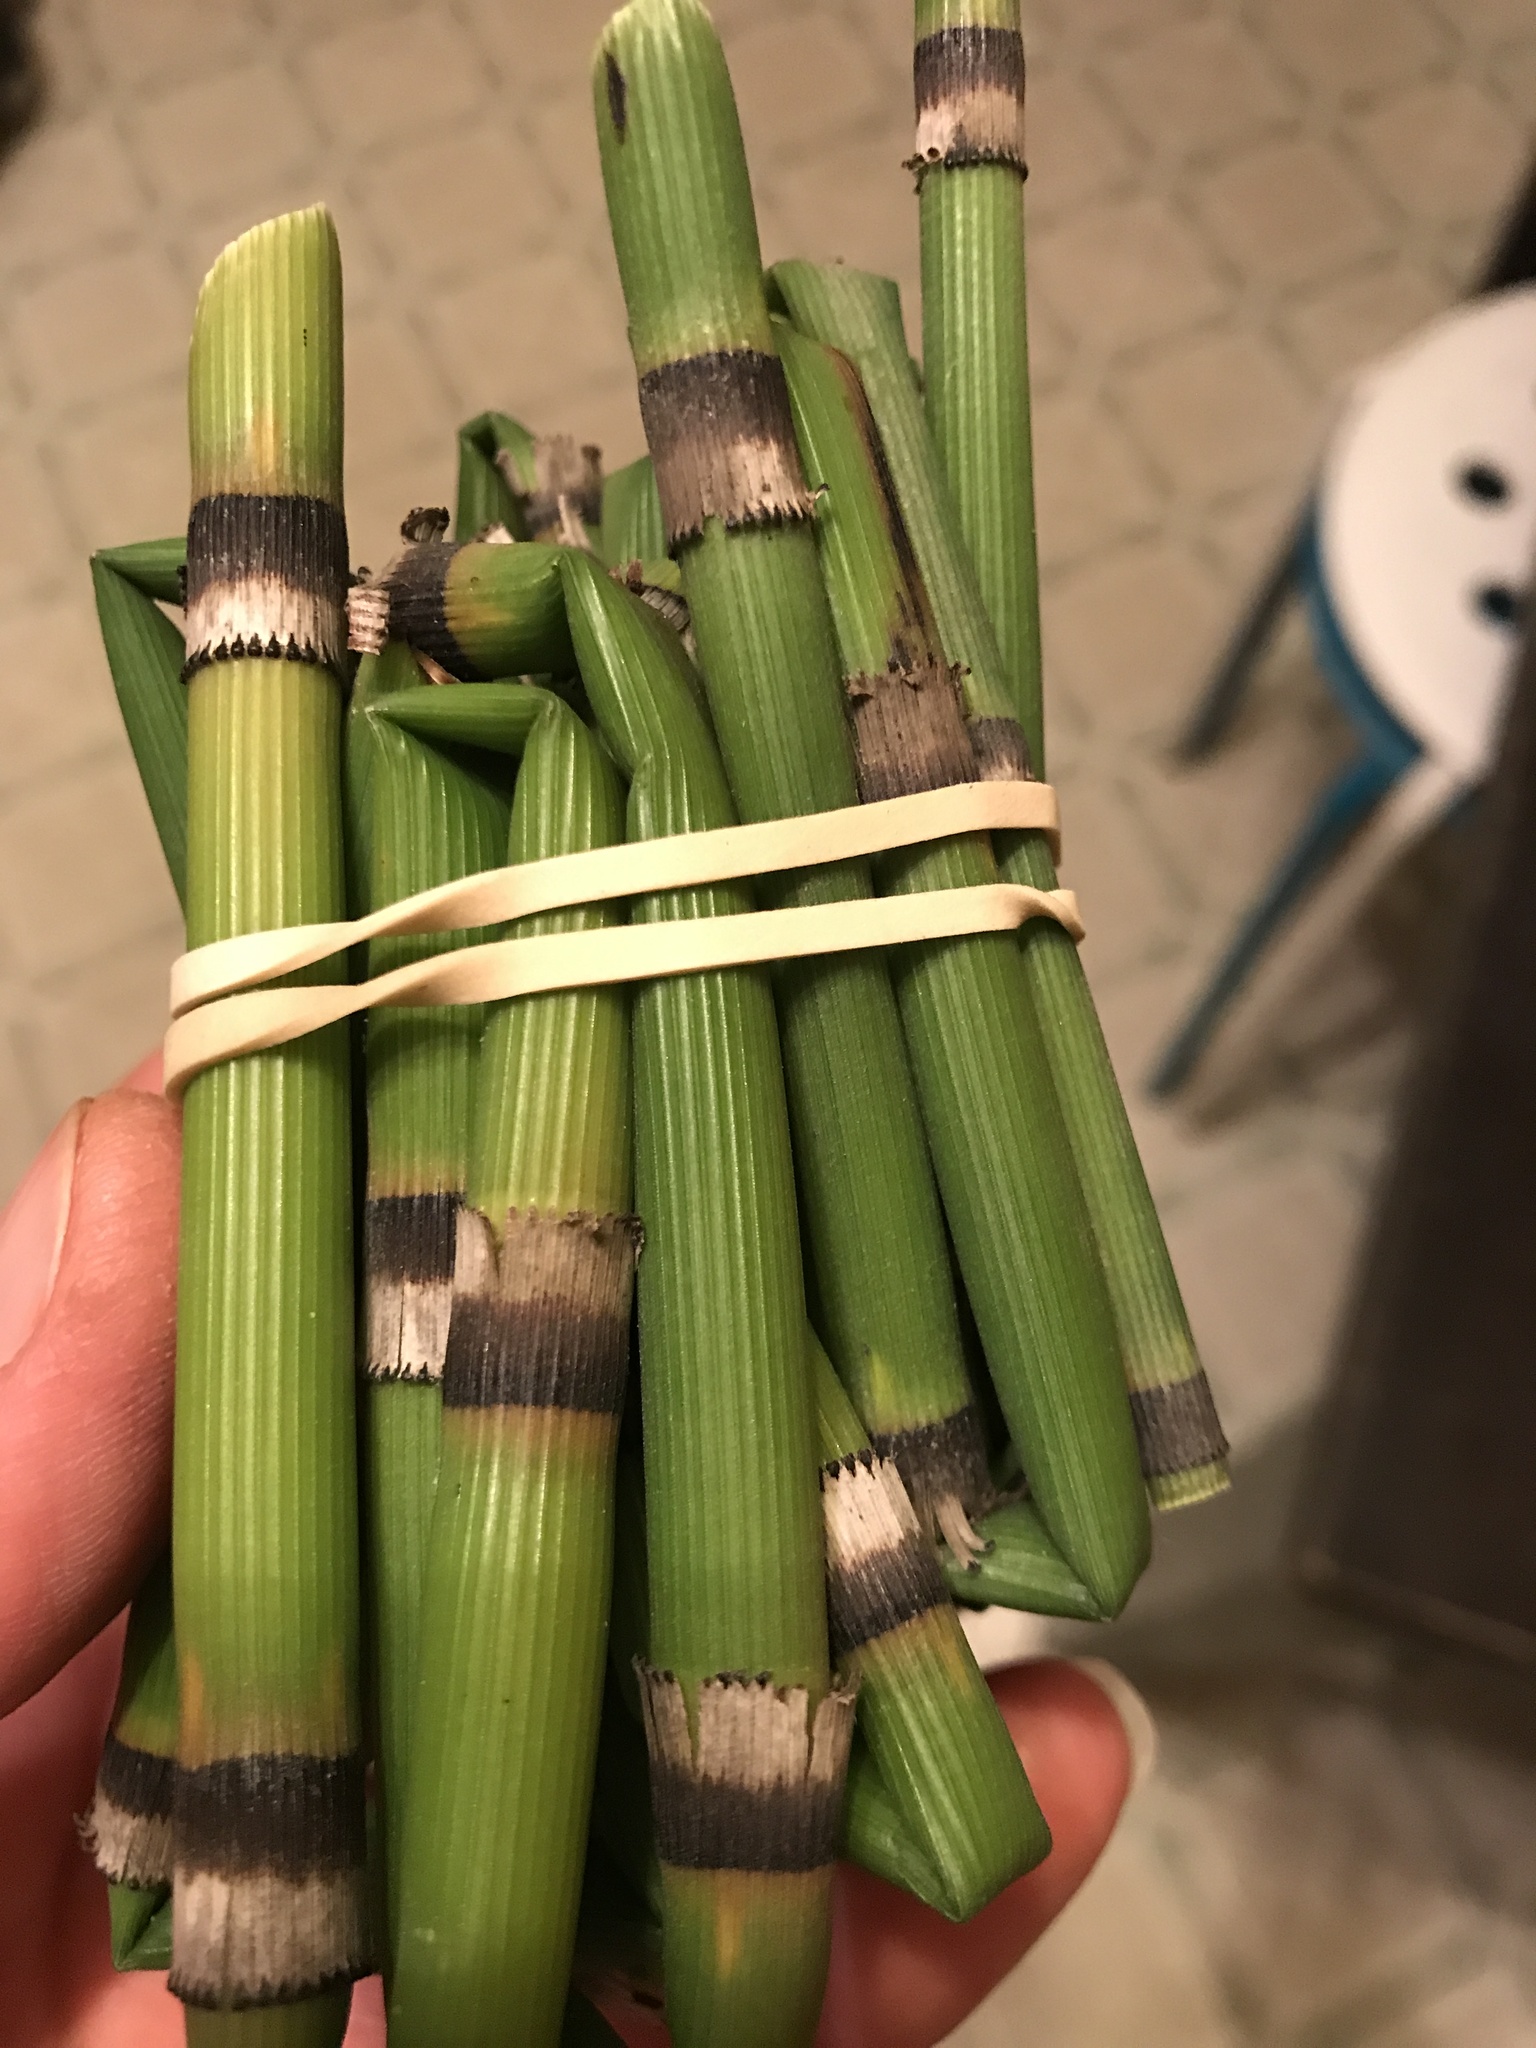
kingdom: Plantae
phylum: Tracheophyta
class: Polypodiopsida
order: Equisetales
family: Equisetaceae
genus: Equisetum
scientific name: Equisetum hyemale
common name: Rough horsetail
